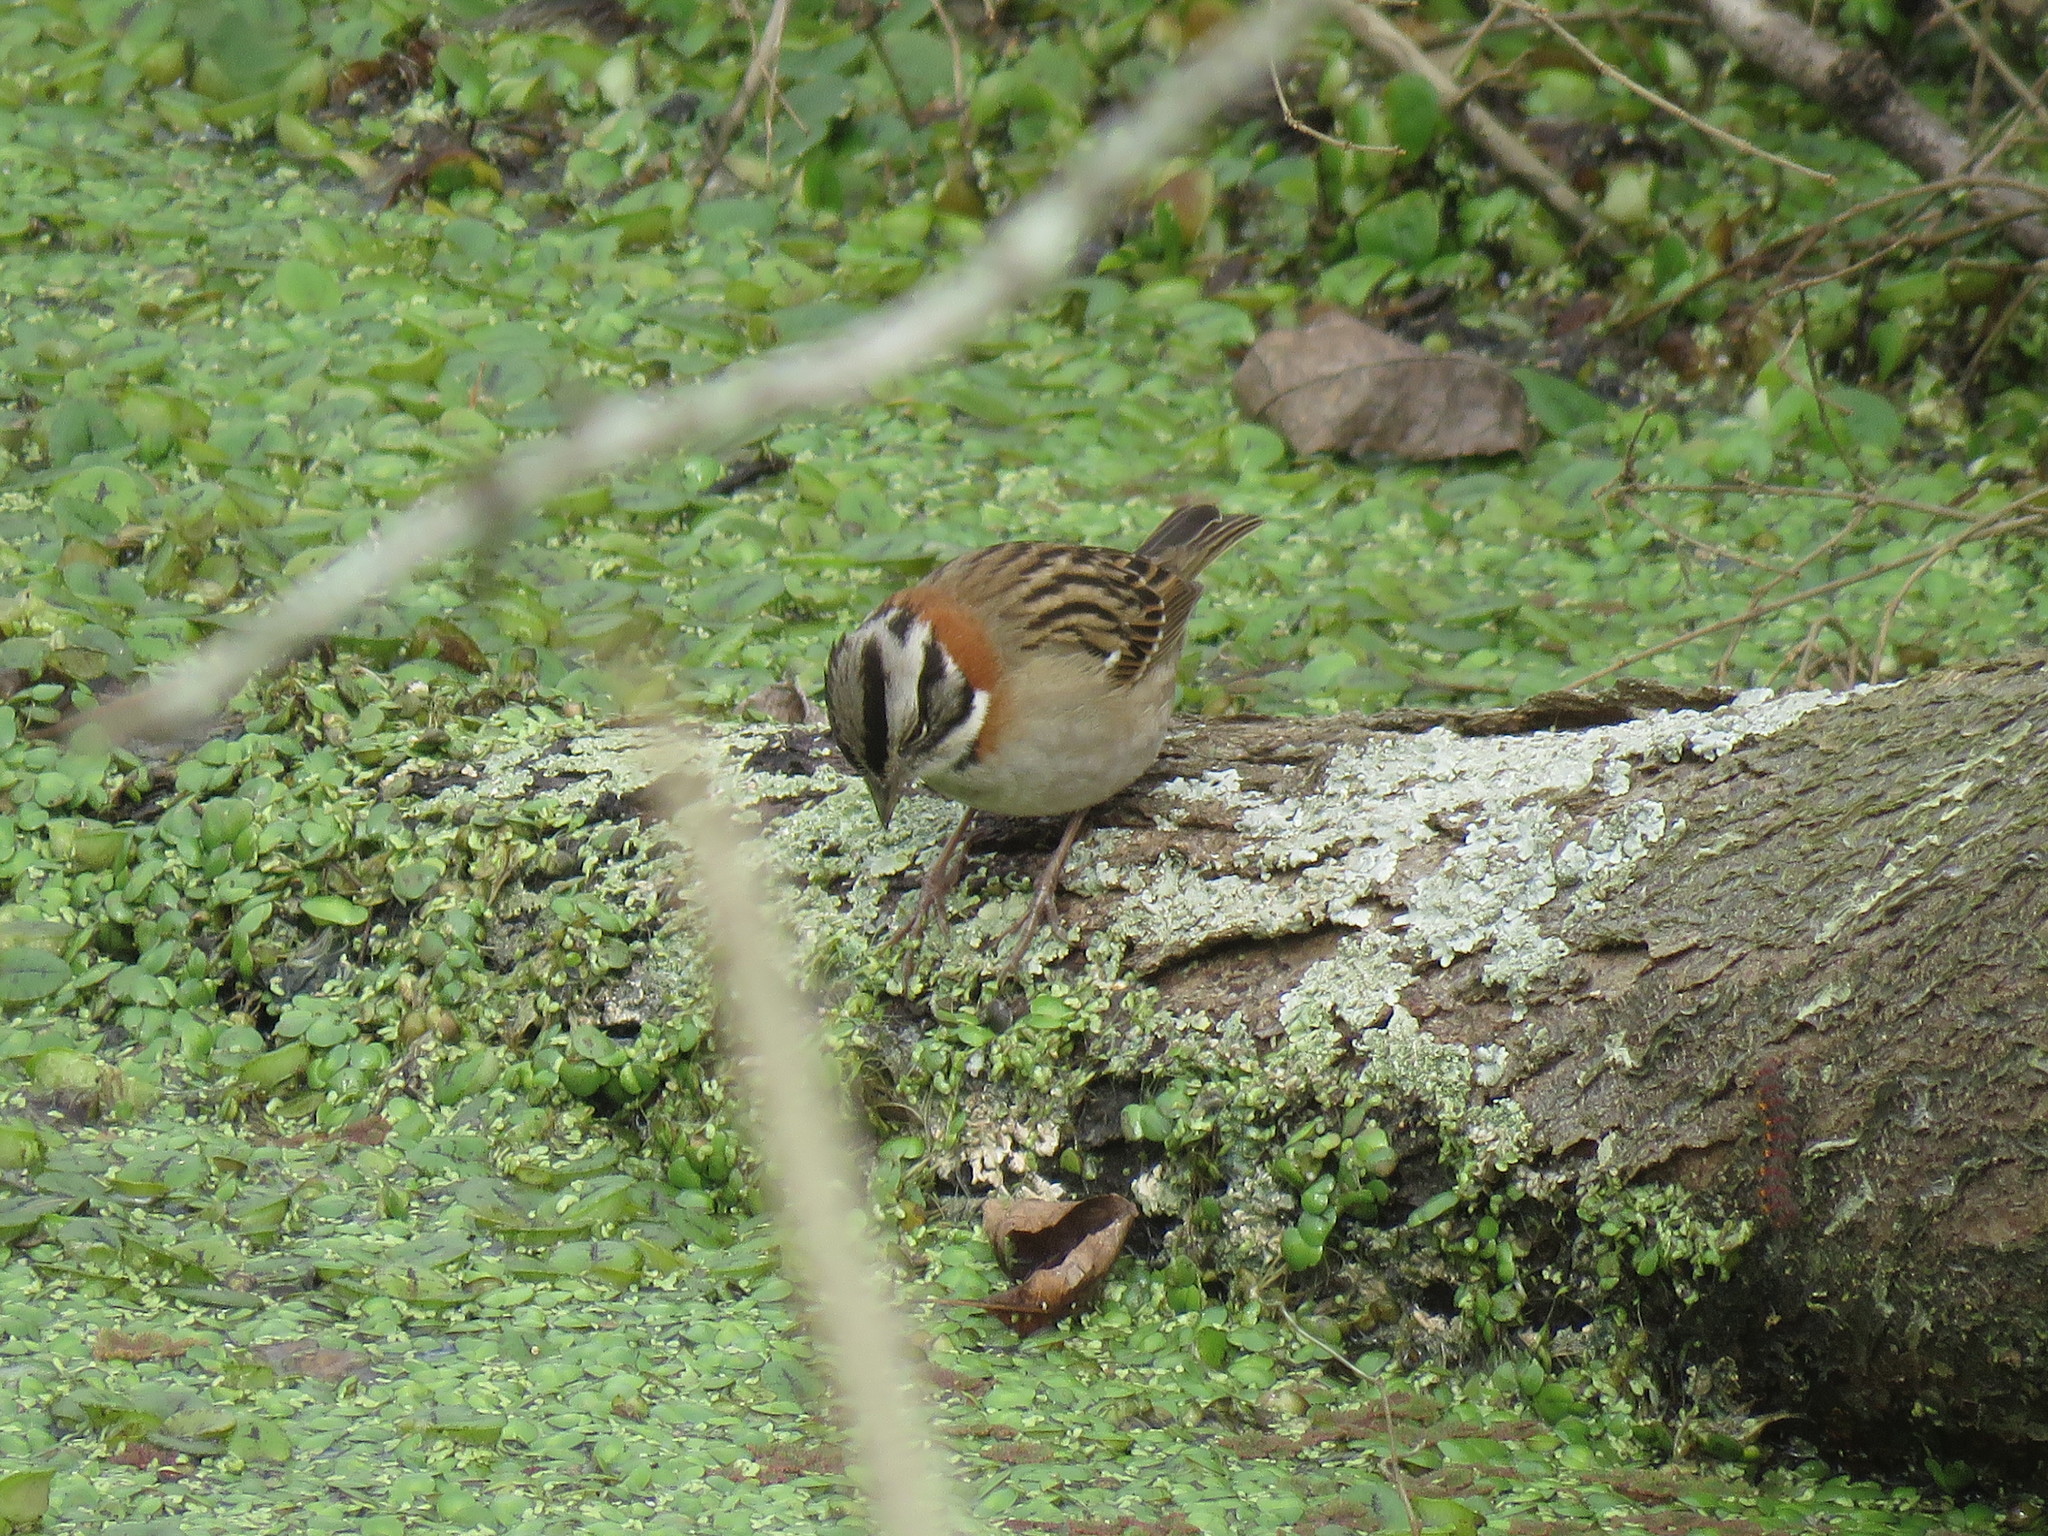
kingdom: Animalia
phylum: Chordata
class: Aves
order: Passeriformes
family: Passerellidae
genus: Zonotrichia
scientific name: Zonotrichia capensis
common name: Rufous-collared sparrow
